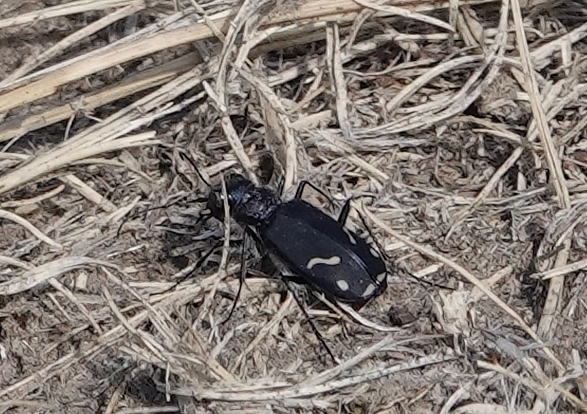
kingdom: Animalia
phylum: Arthropoda
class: Insecta
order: Coleoptera
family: Carabidae
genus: Cicindela
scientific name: Cicindela purpurea
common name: Cow path tiger beetle
